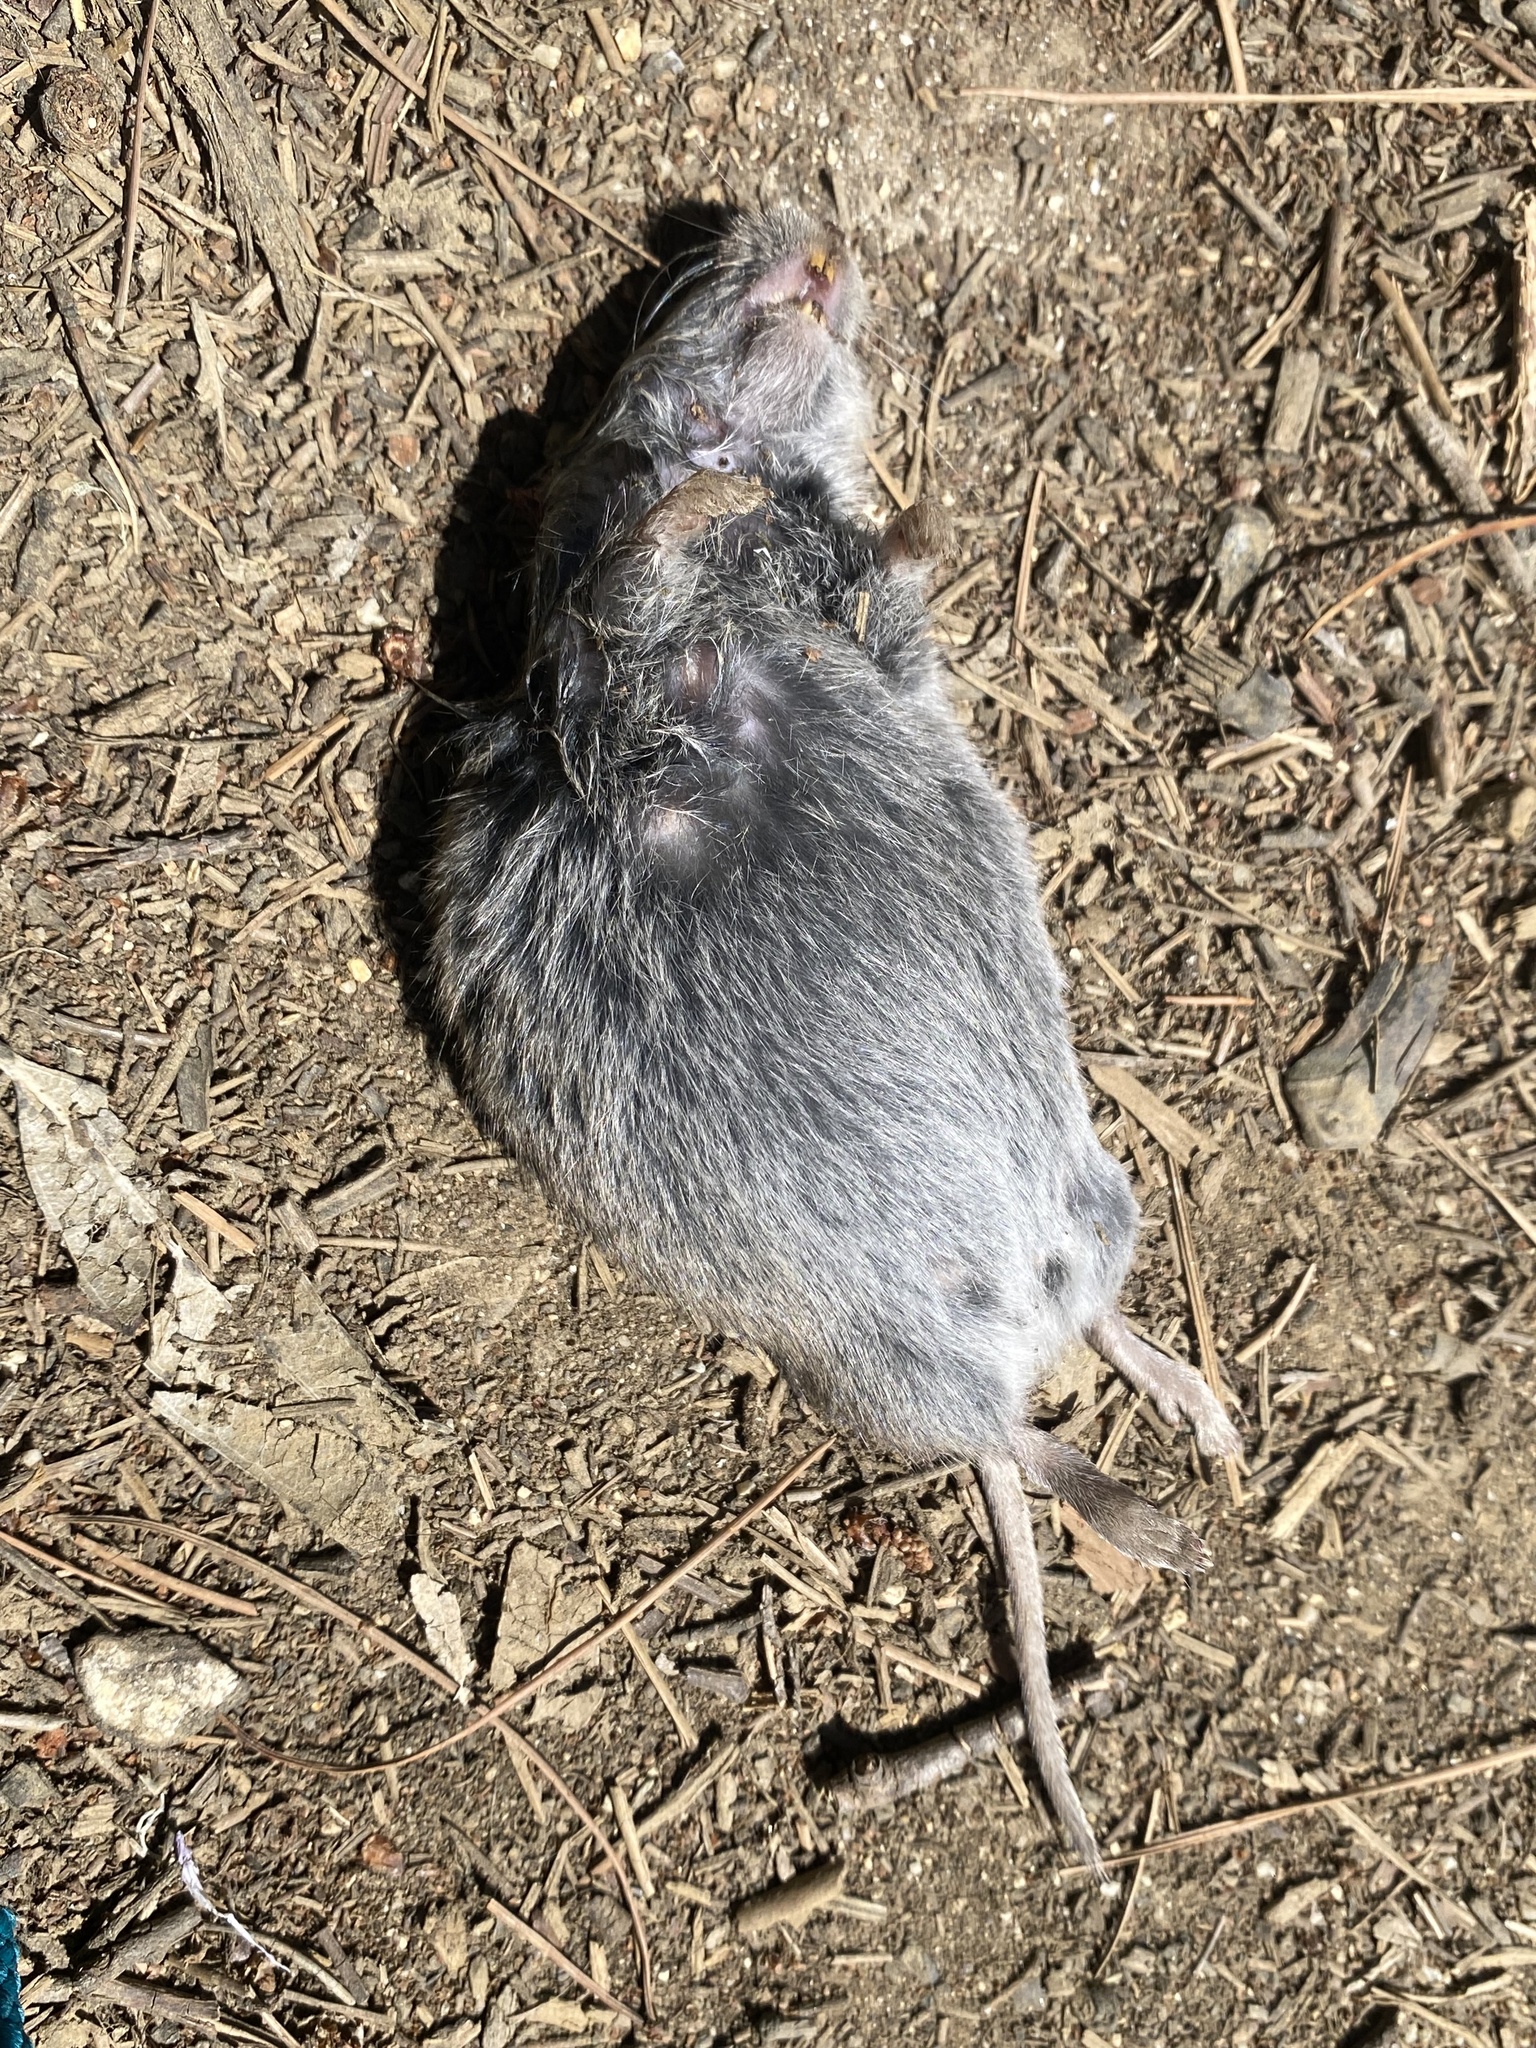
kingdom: Animalia
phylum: Chordata
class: Mammalia
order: Rodentia
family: Cricetidae
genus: Microtus
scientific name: Microtus californicus
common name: California vole
